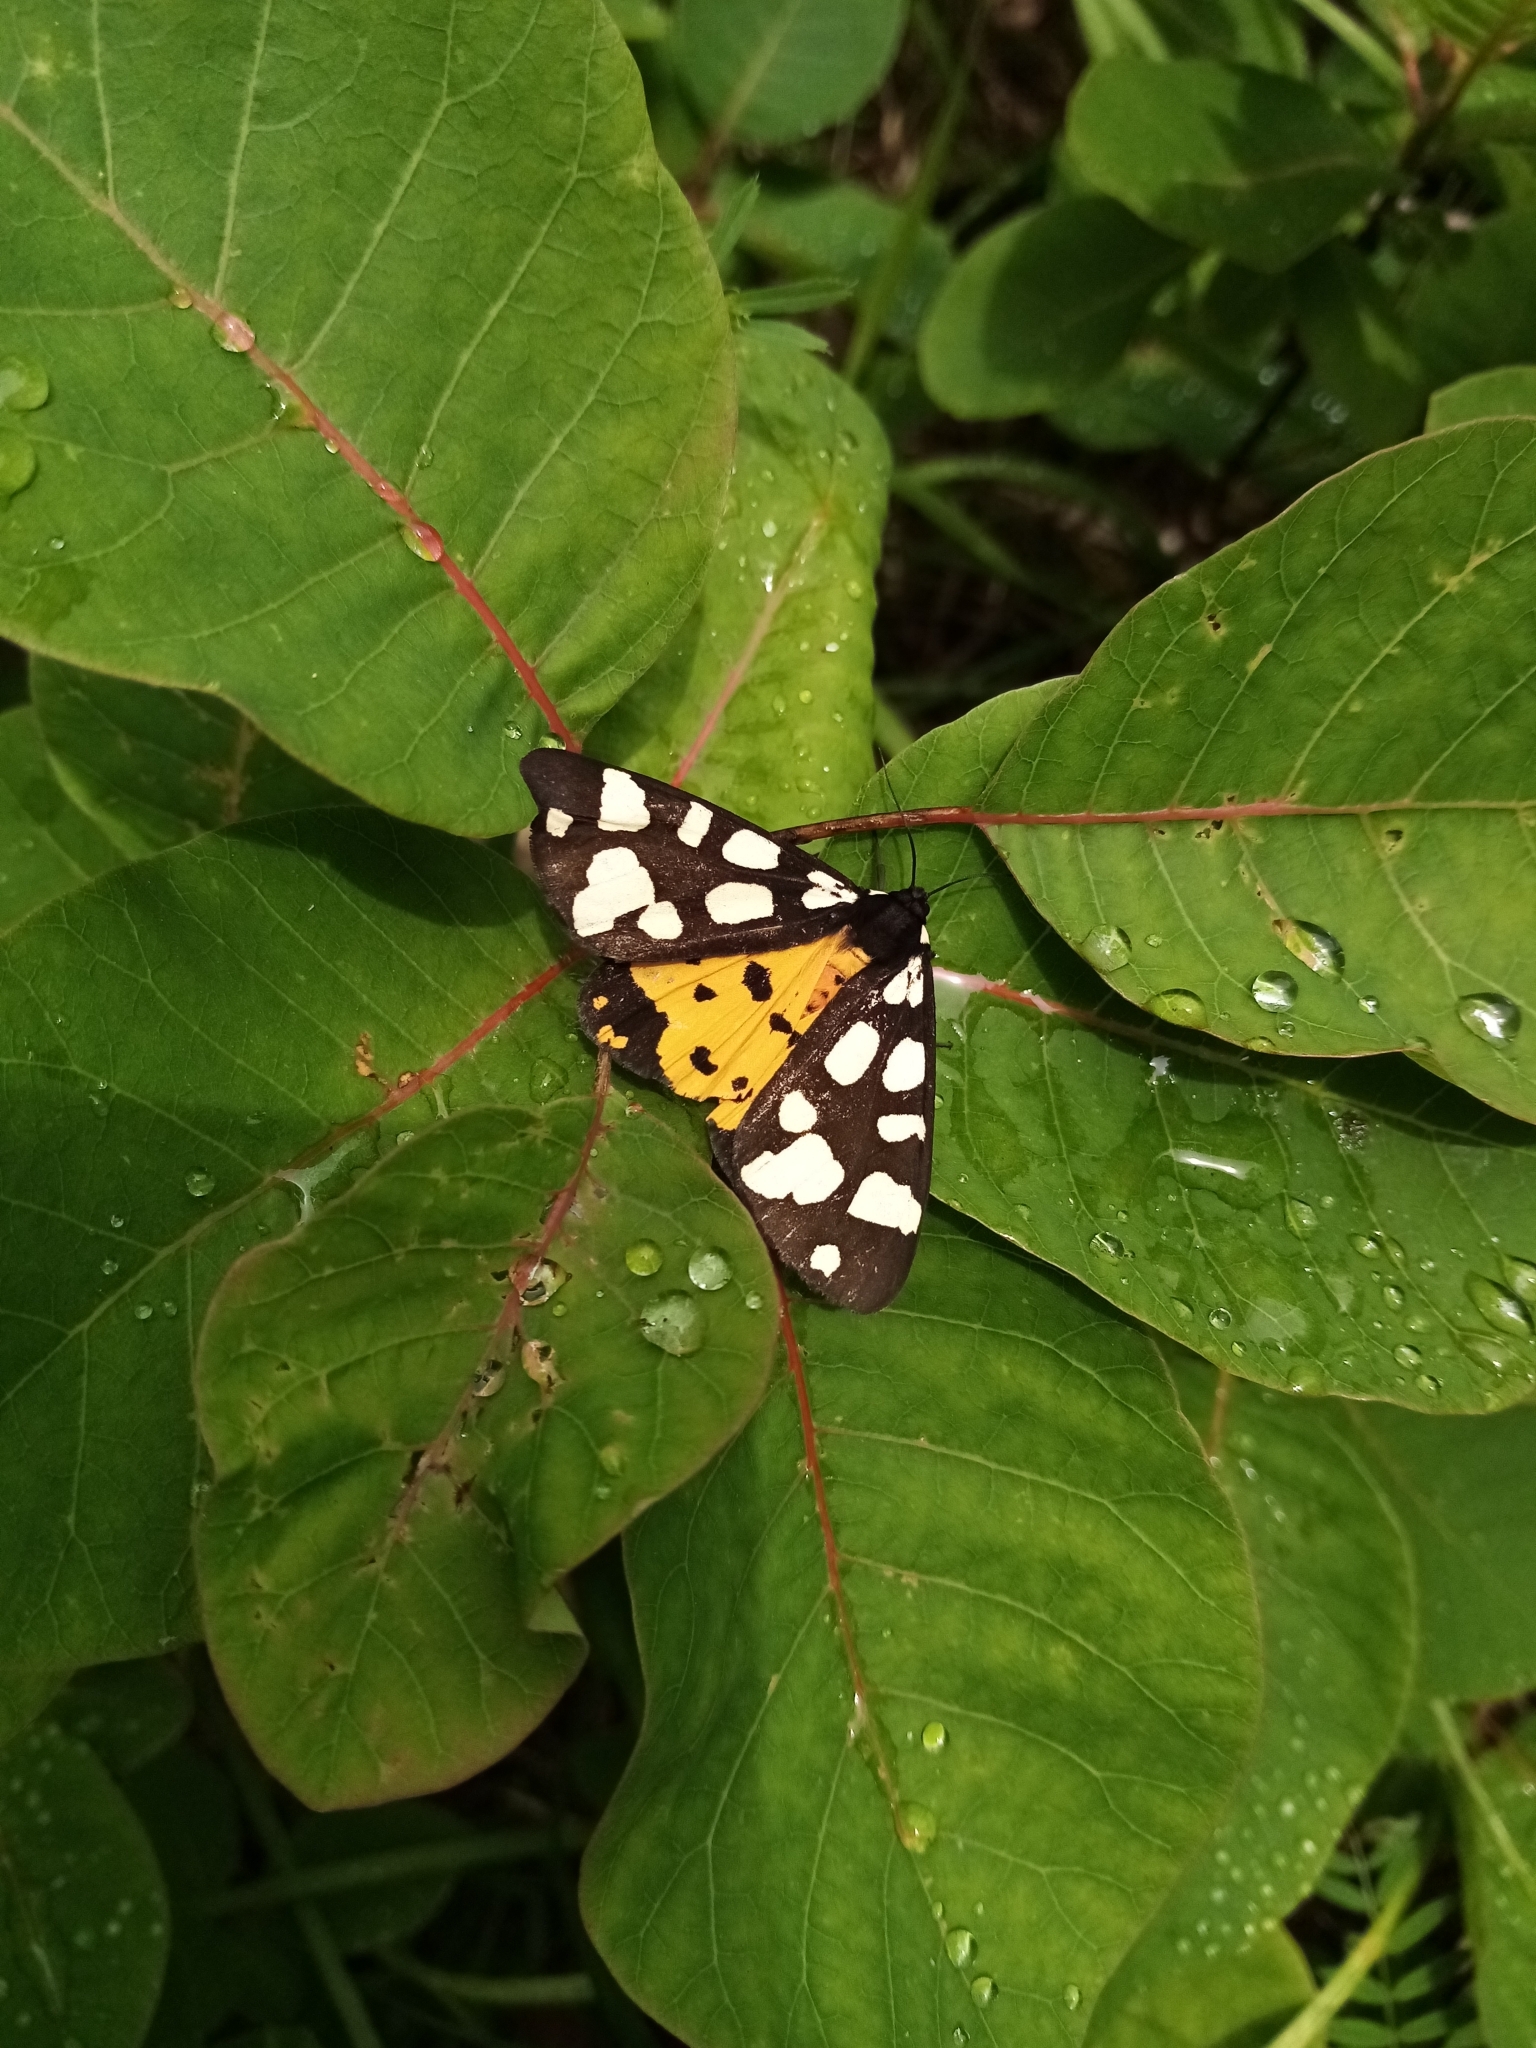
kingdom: Animalia
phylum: Arthropoda
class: Insecta
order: Lepidoptera
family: Erebidae
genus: Epicallia
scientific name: Epicallia villica
